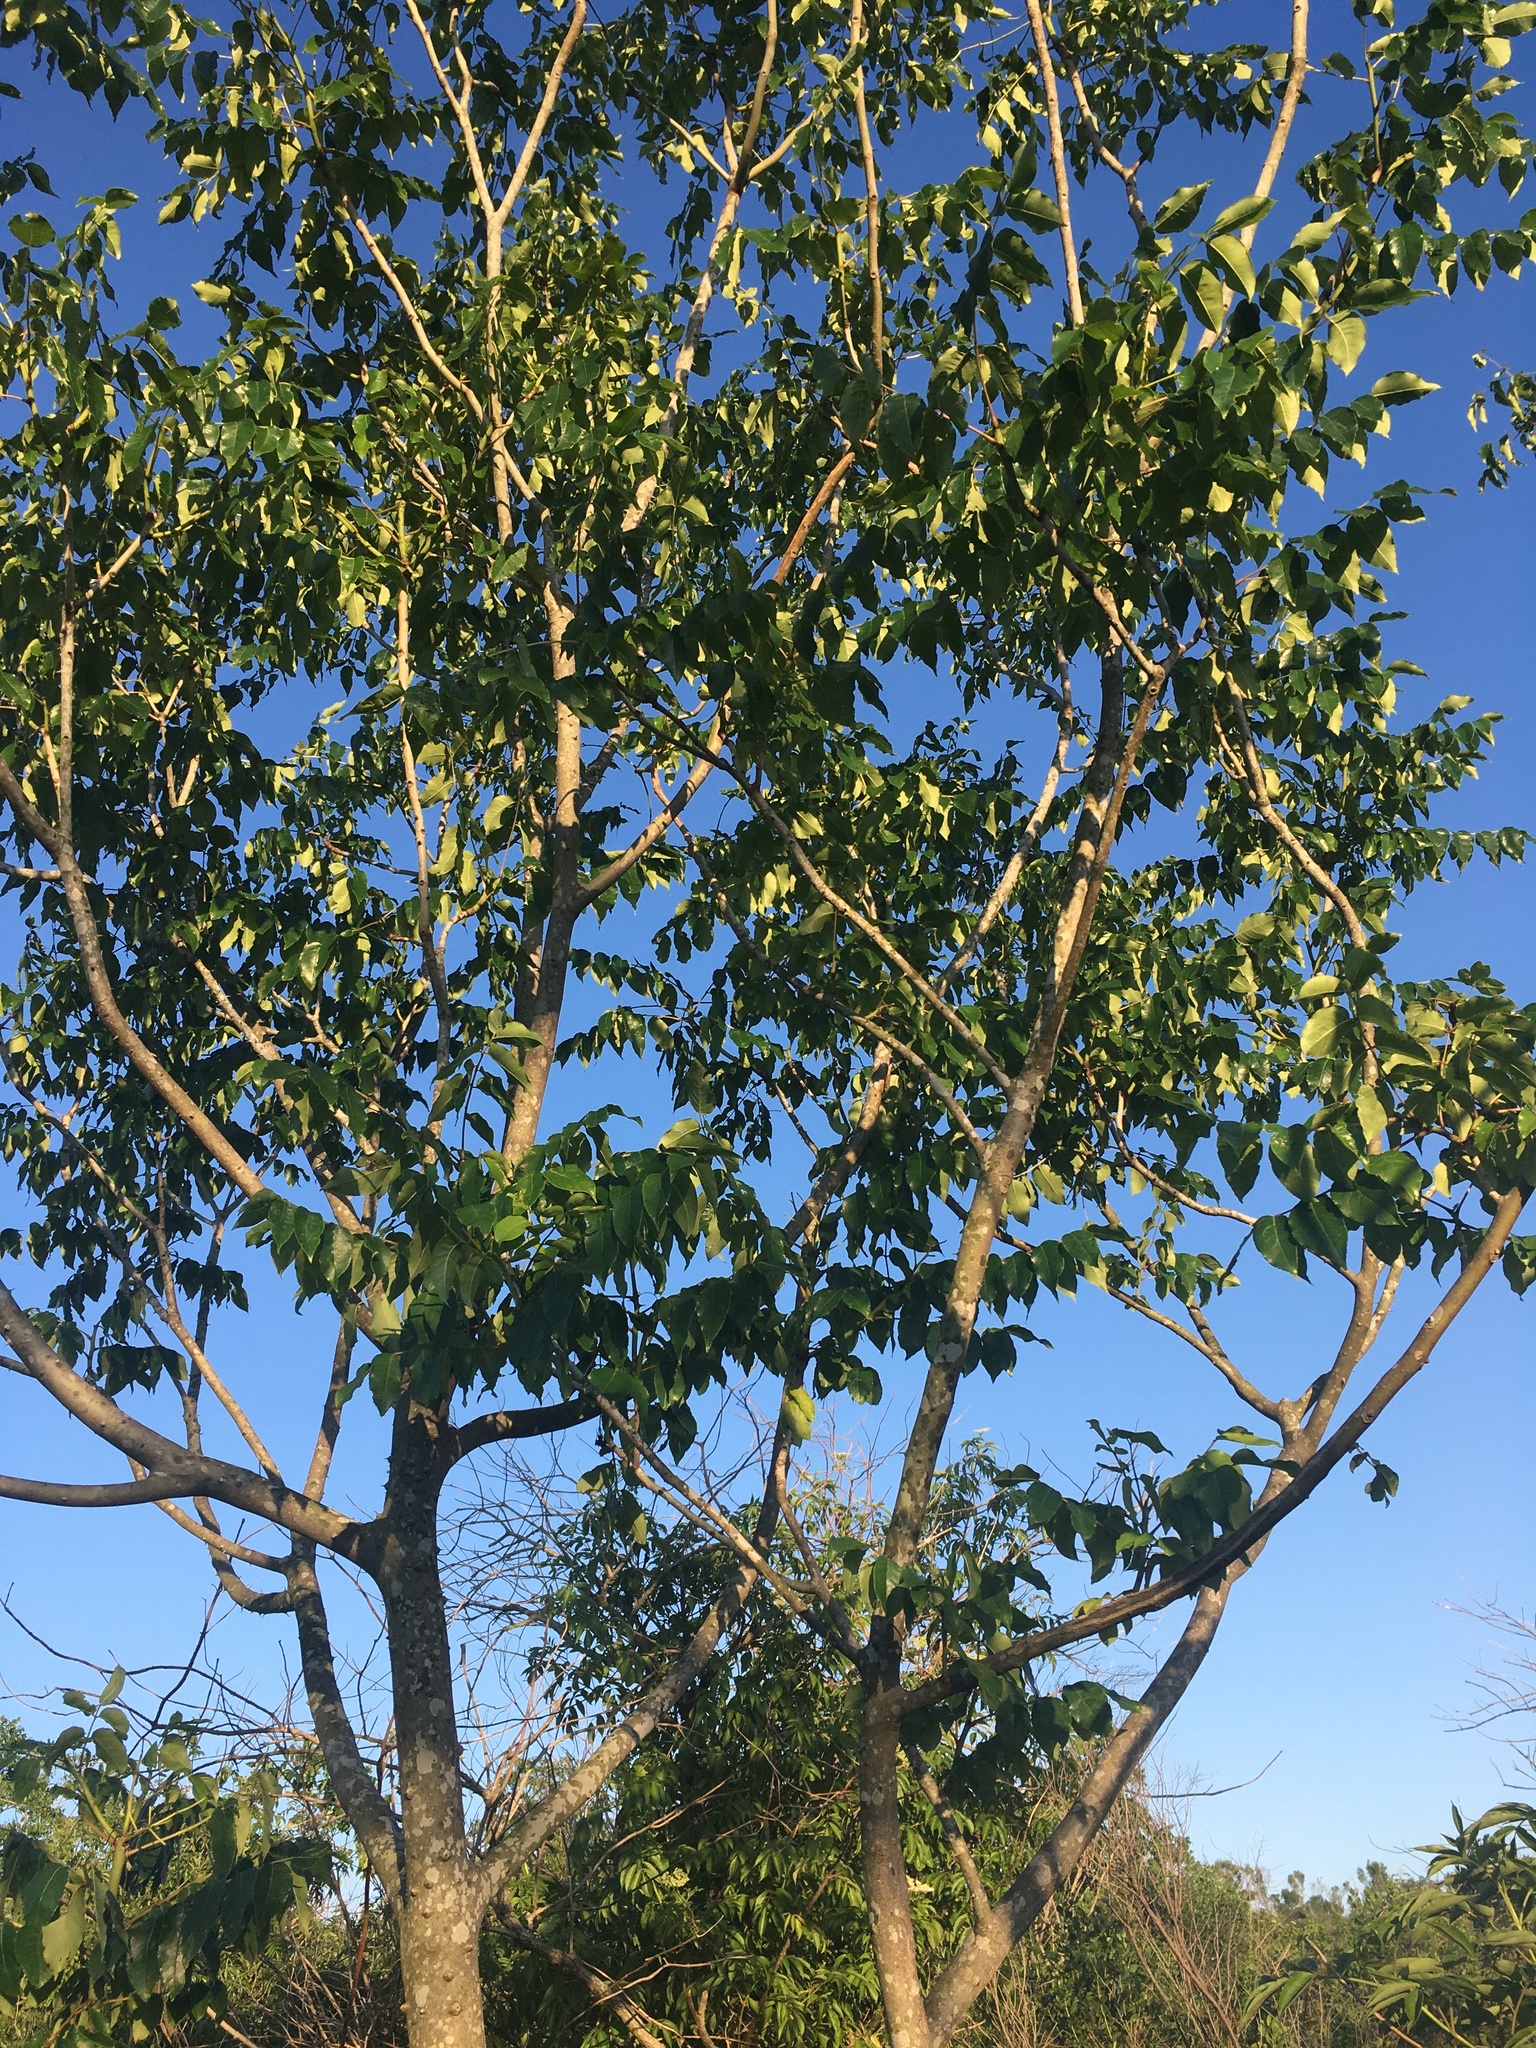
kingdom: Plantae
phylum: Tracheophyta
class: Magnoliopsida
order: Sapindales
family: Rutaceae
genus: Zanthoxylum
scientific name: Zanthoxylum clava-herculis
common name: Hercules'-club
